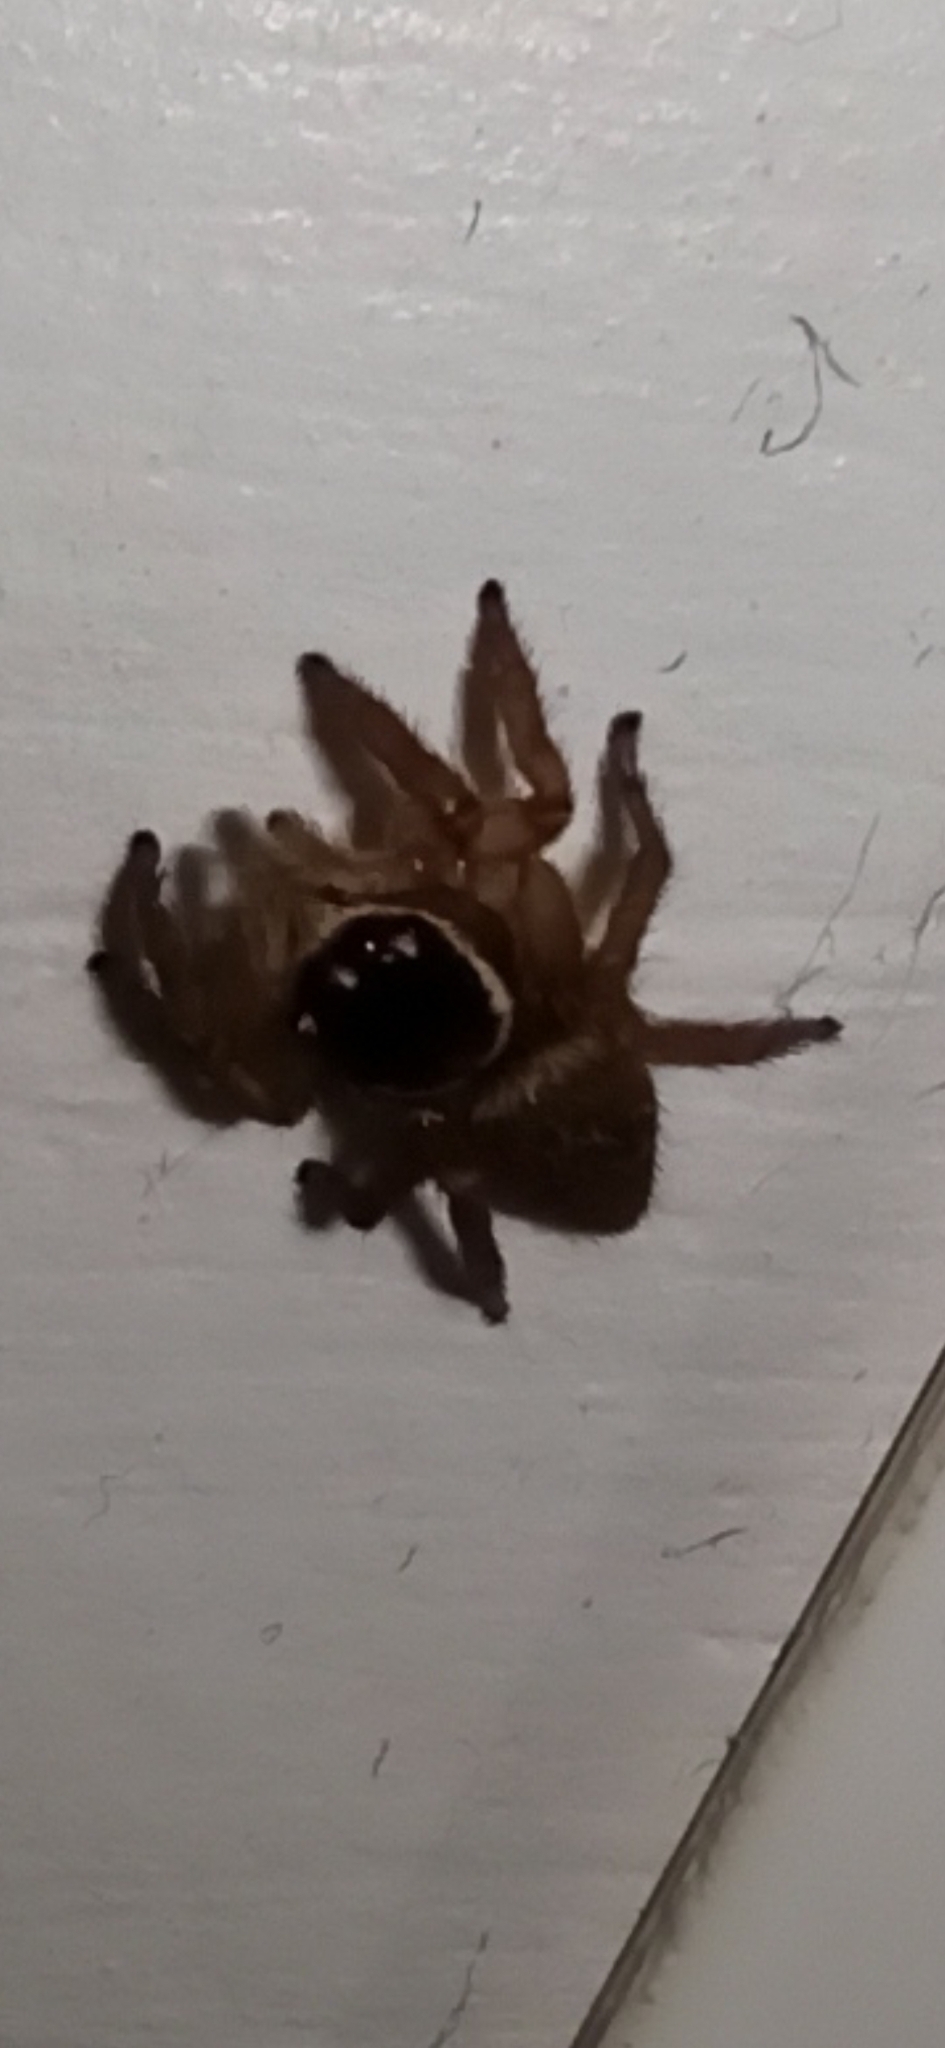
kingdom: Animalia
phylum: Arthropoda
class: Arachnida
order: Araneae
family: Salticidae
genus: Maratus
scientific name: Maratus griseus
